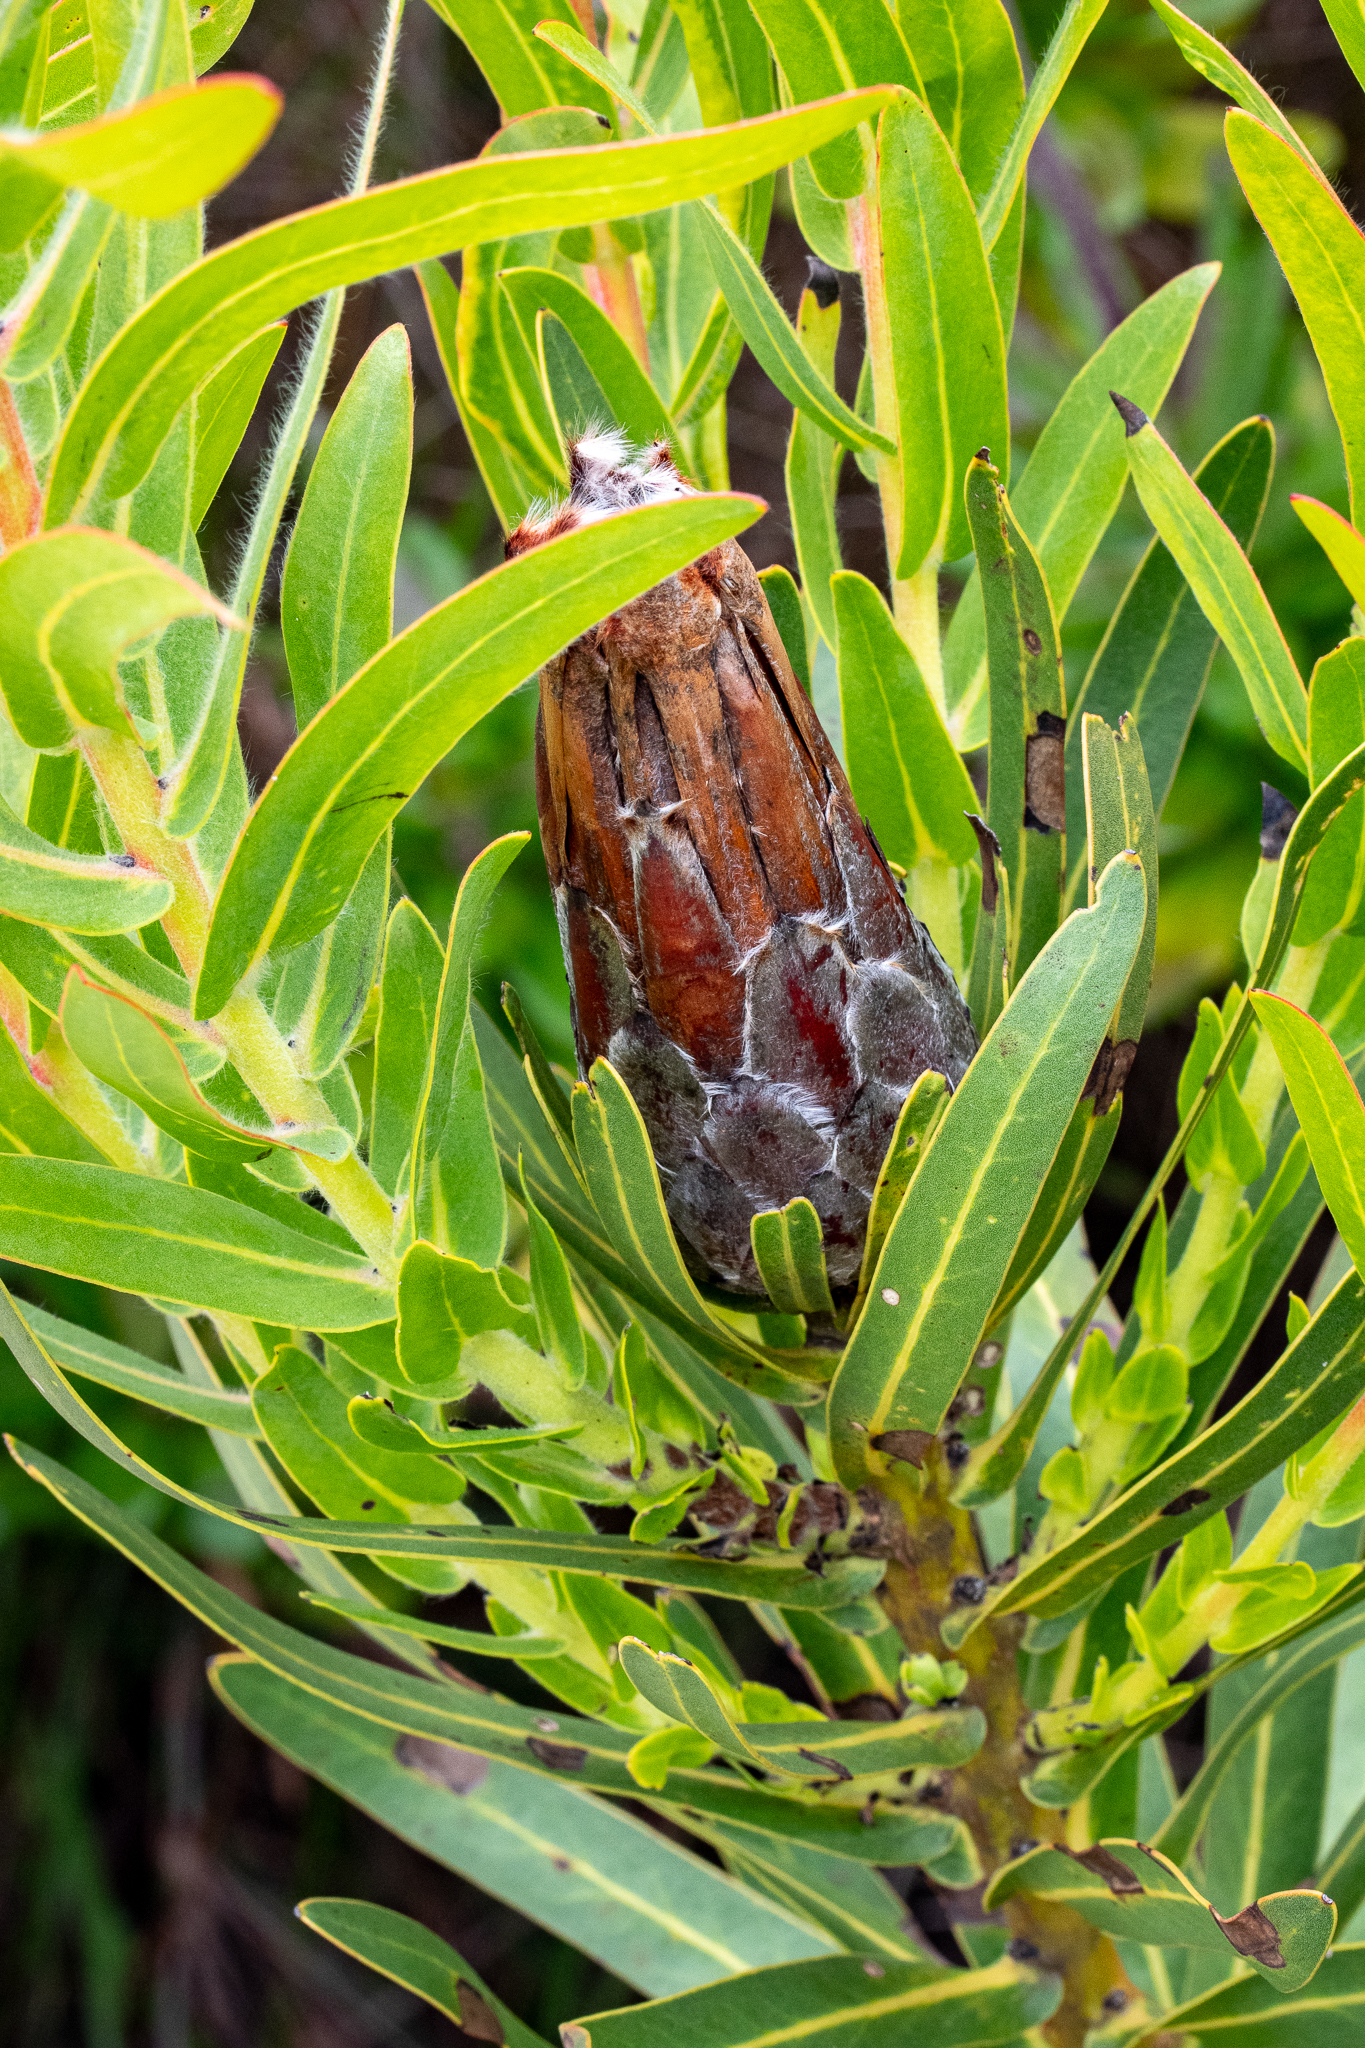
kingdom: Plantae
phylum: Tracheophyta
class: Magnoliopsida
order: Proteales
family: Proteaceae
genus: Protea
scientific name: Protea lepidocarpodendron
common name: Black-bearded protea
